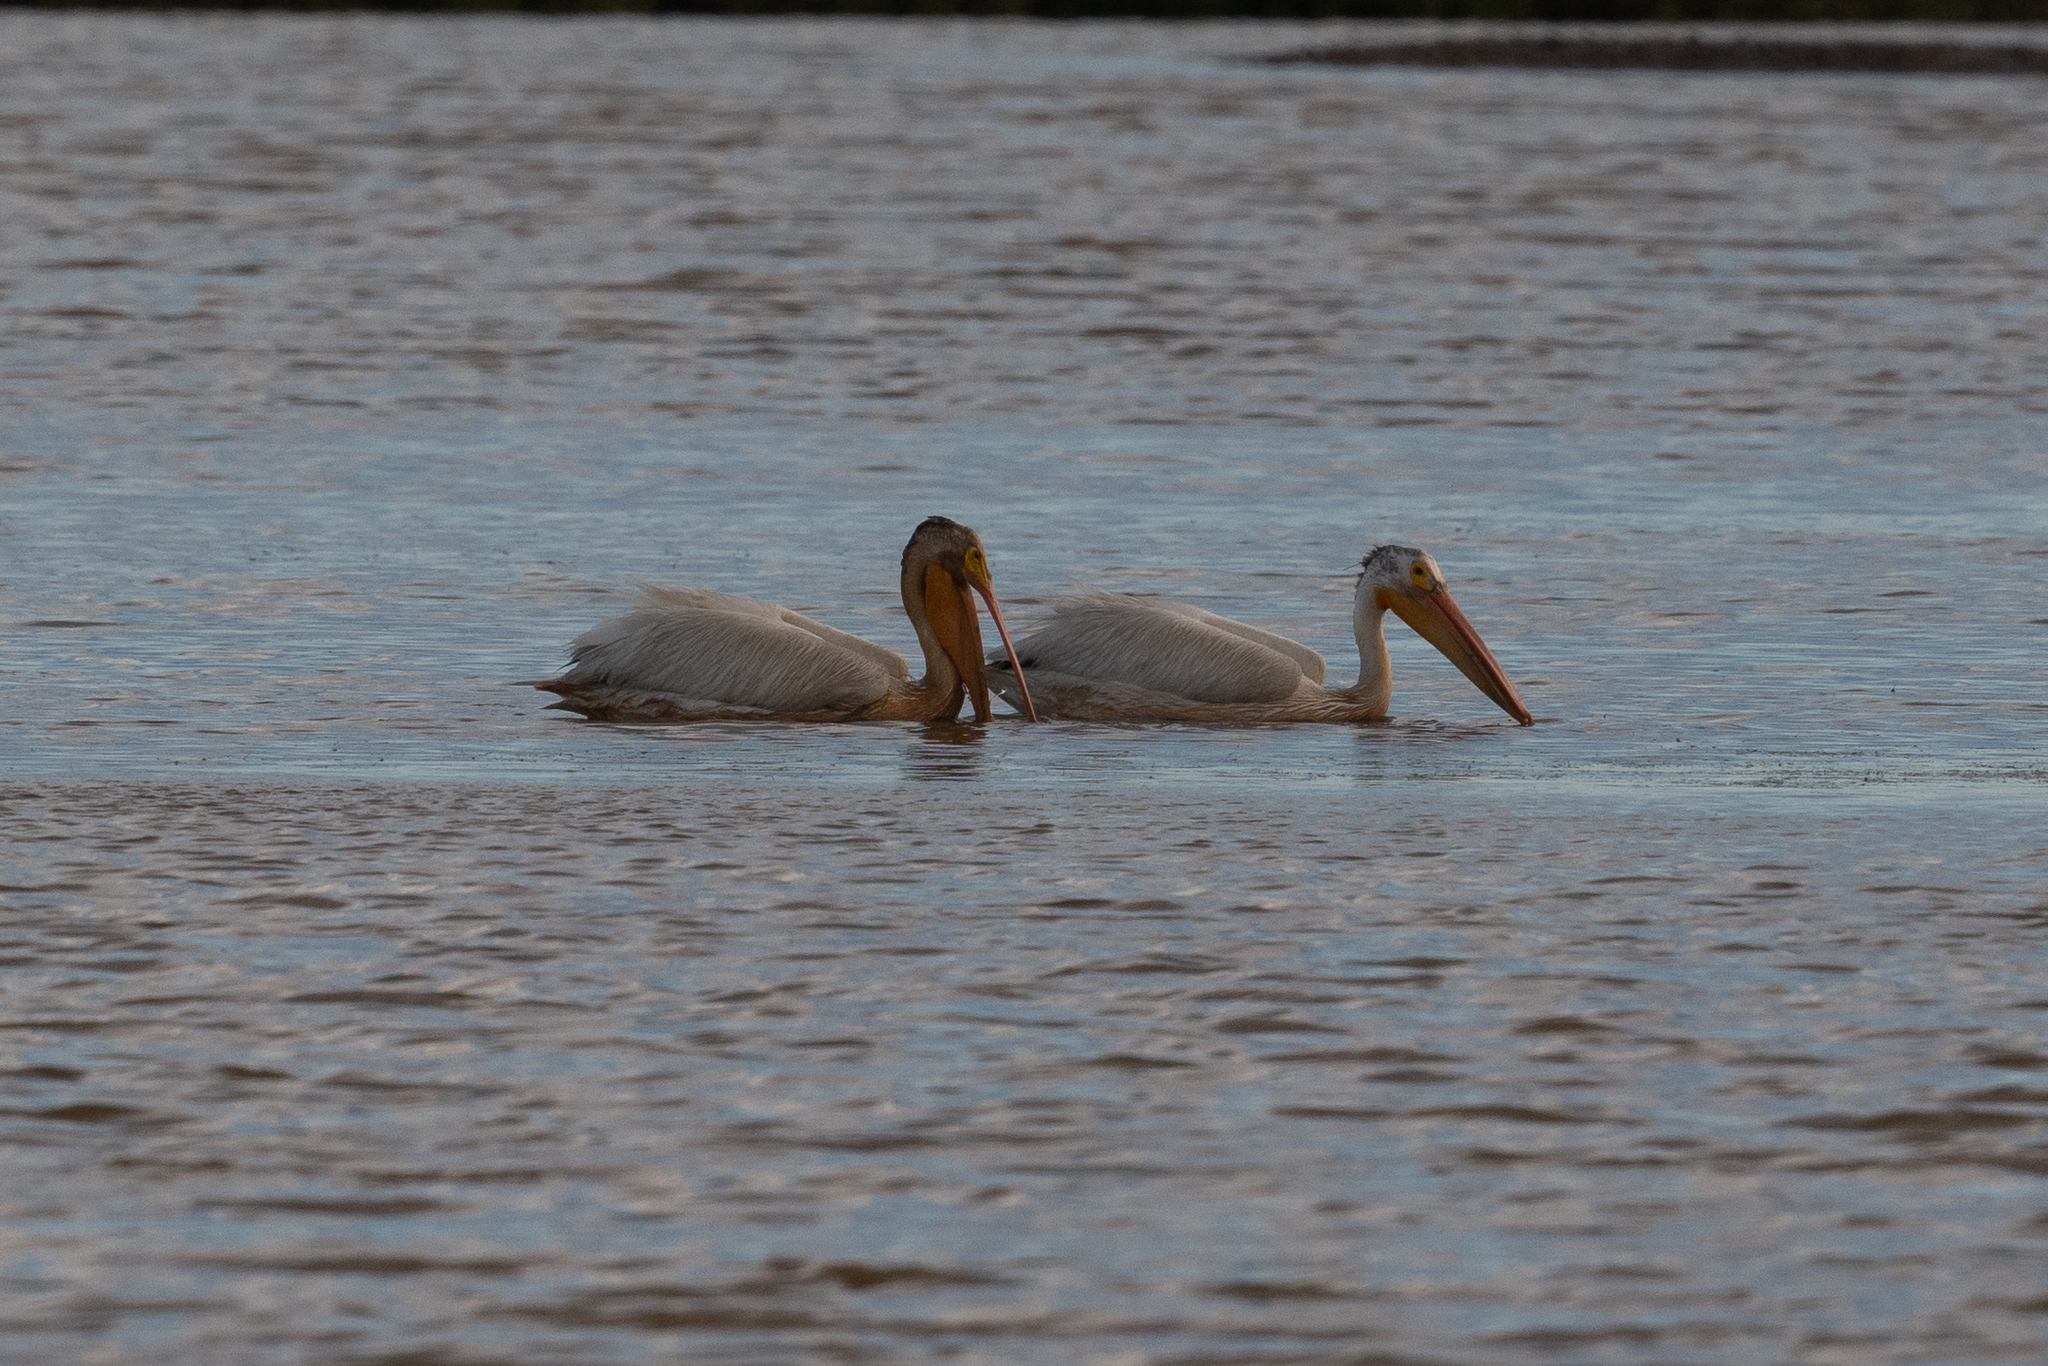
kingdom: Animalia
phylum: Chordata
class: Aves
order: Pelecaniformes
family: Pelecanidae
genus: Pelecanus
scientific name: Pelecanus erythrorhynchos
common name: American white pelican
